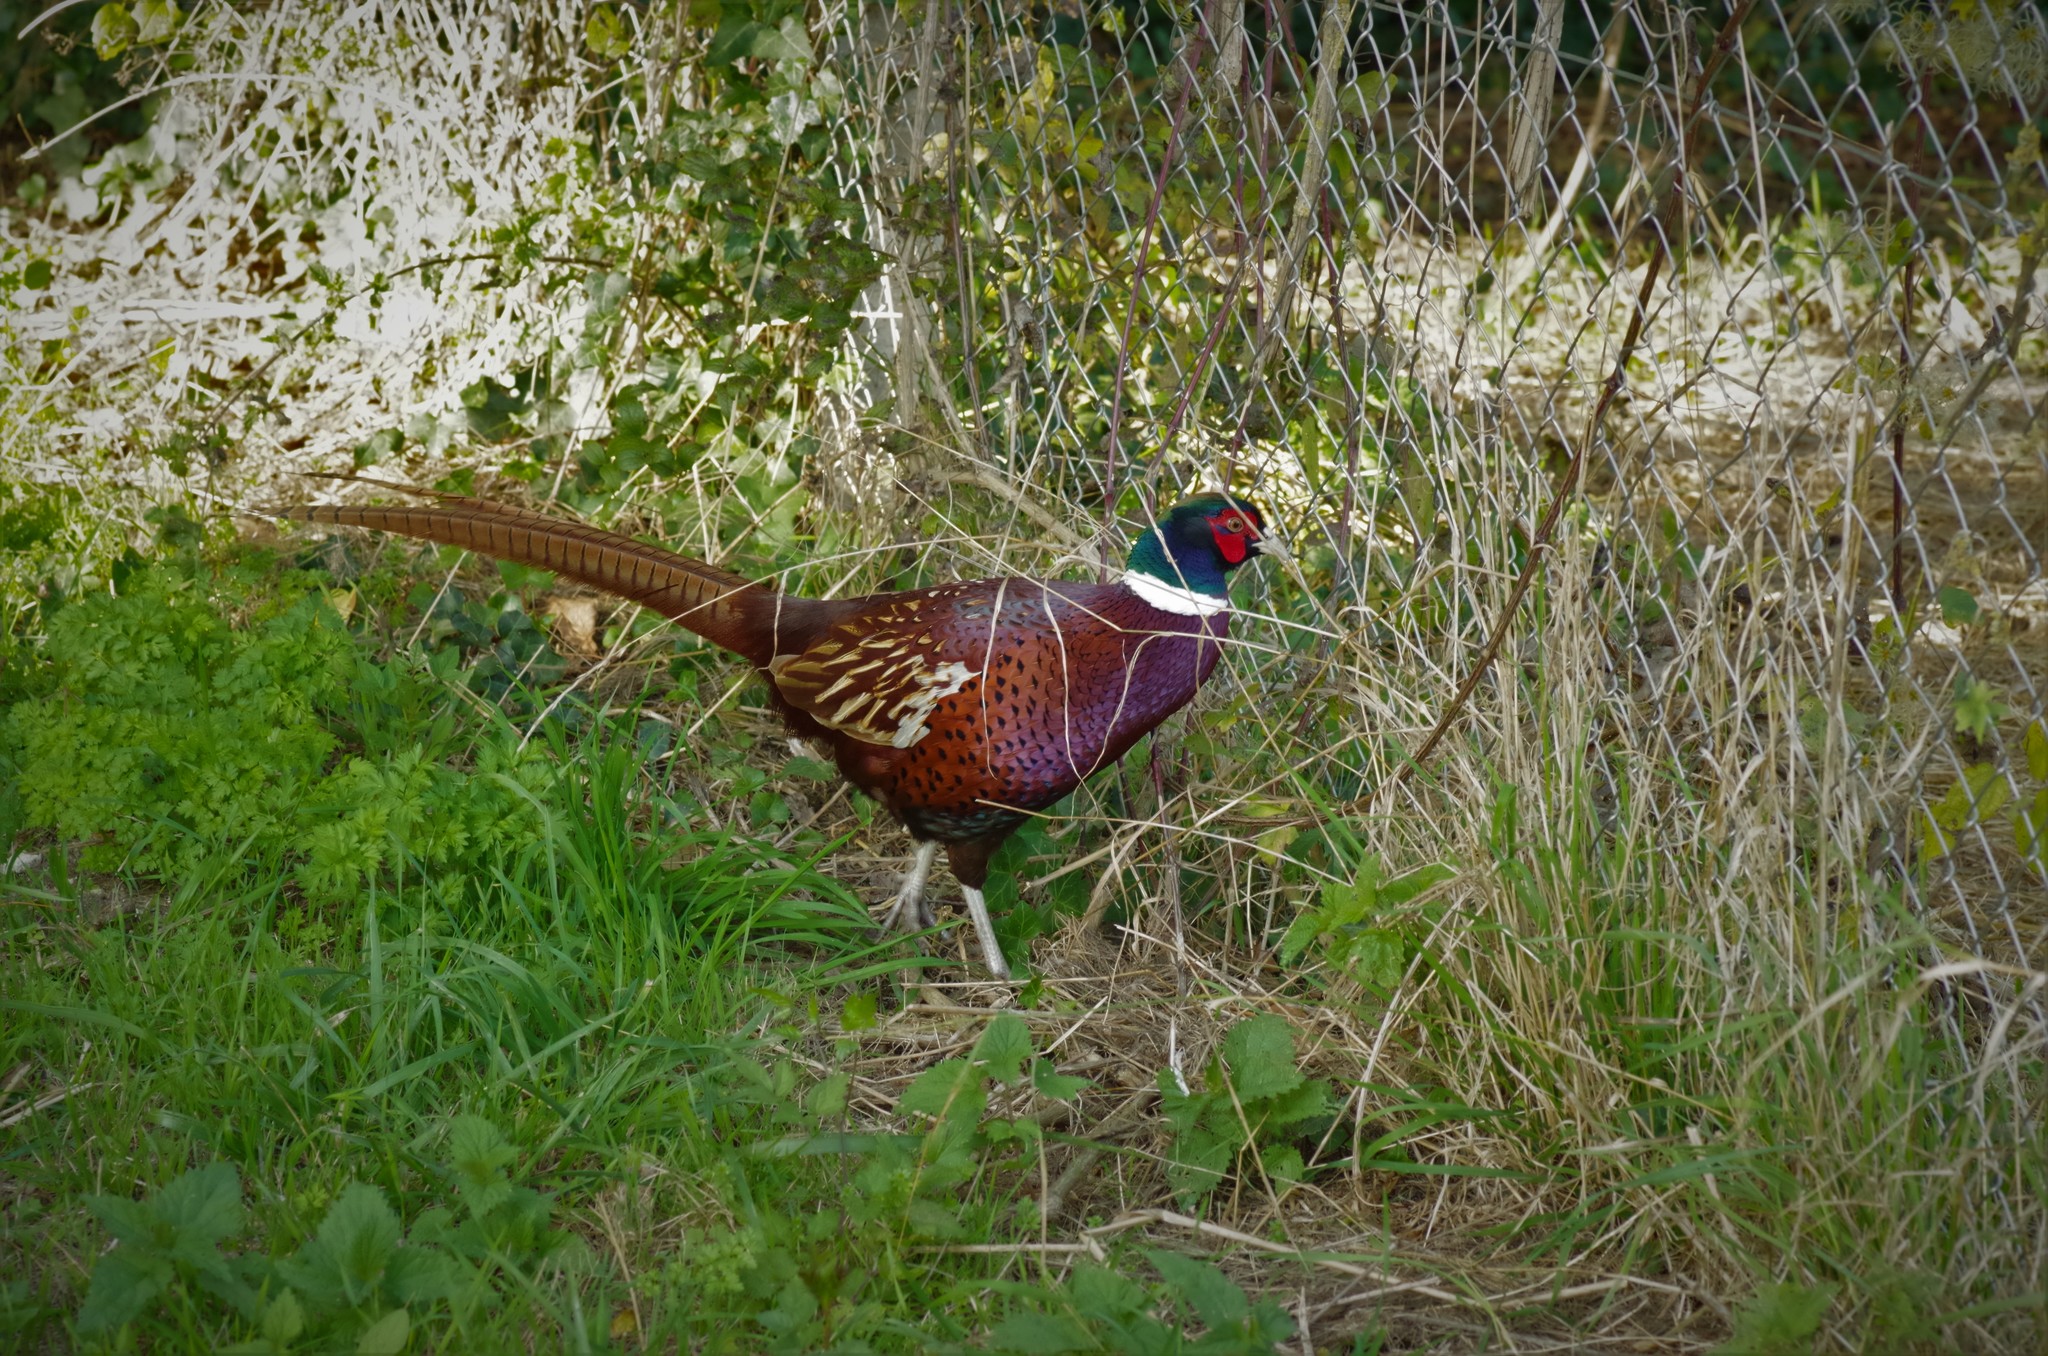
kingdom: Animalia
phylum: Chordata
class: Aves
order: Galliformes
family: Phasianidae
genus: Phasianus
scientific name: Phasianus colchicus
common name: Common pheasant
